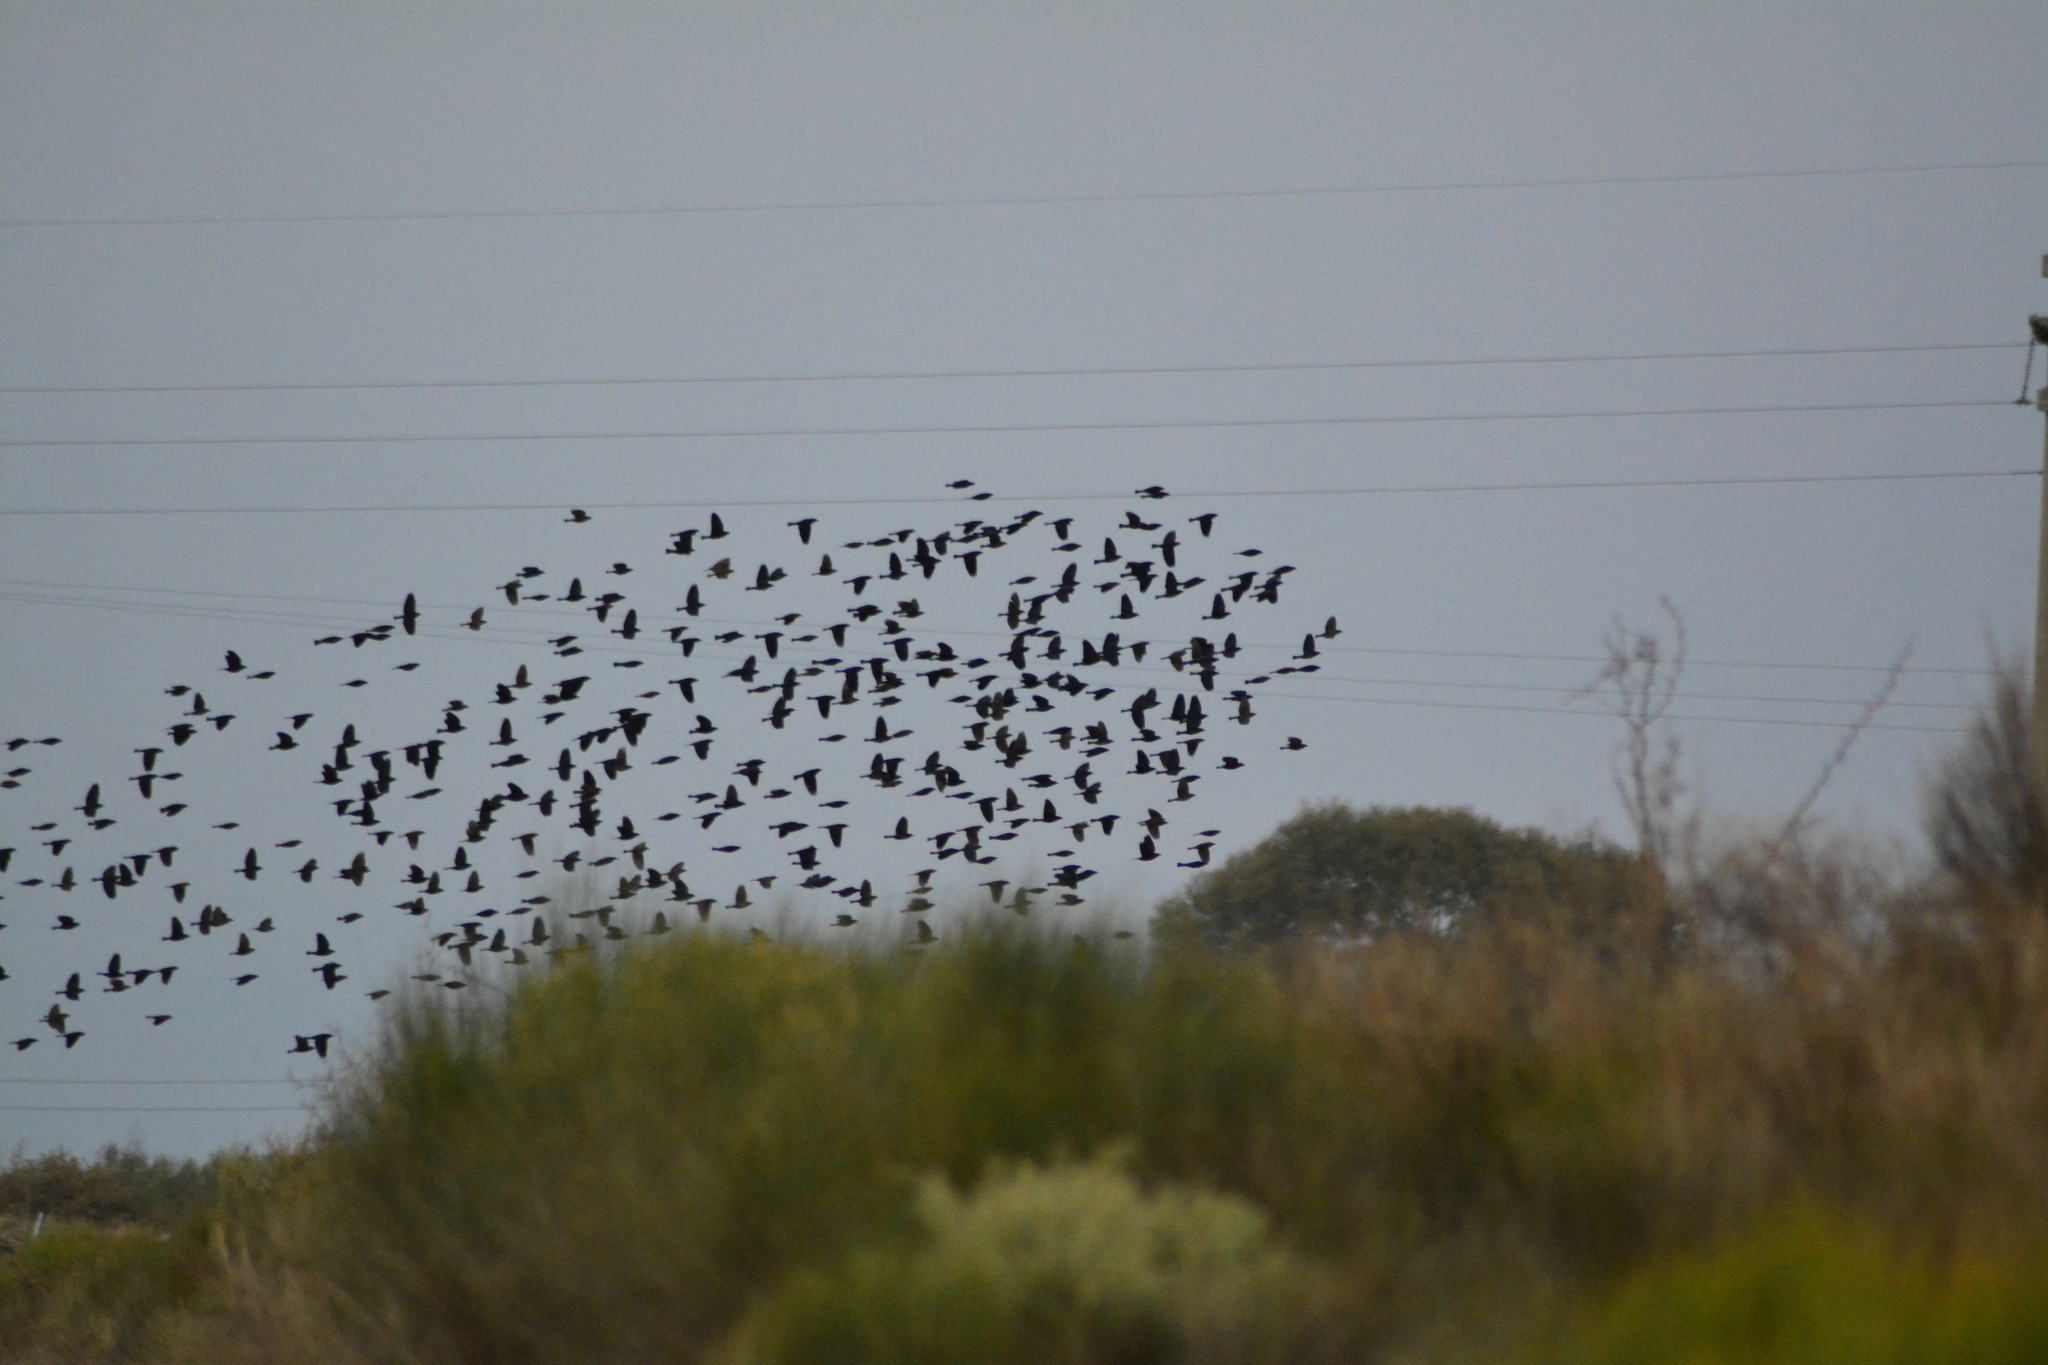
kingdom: Animalia
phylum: Chordata
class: Aves
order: Passeriformes
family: Icteridae
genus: Molothrus
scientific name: Molothrus bonariensis
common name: Shiny cowbird
